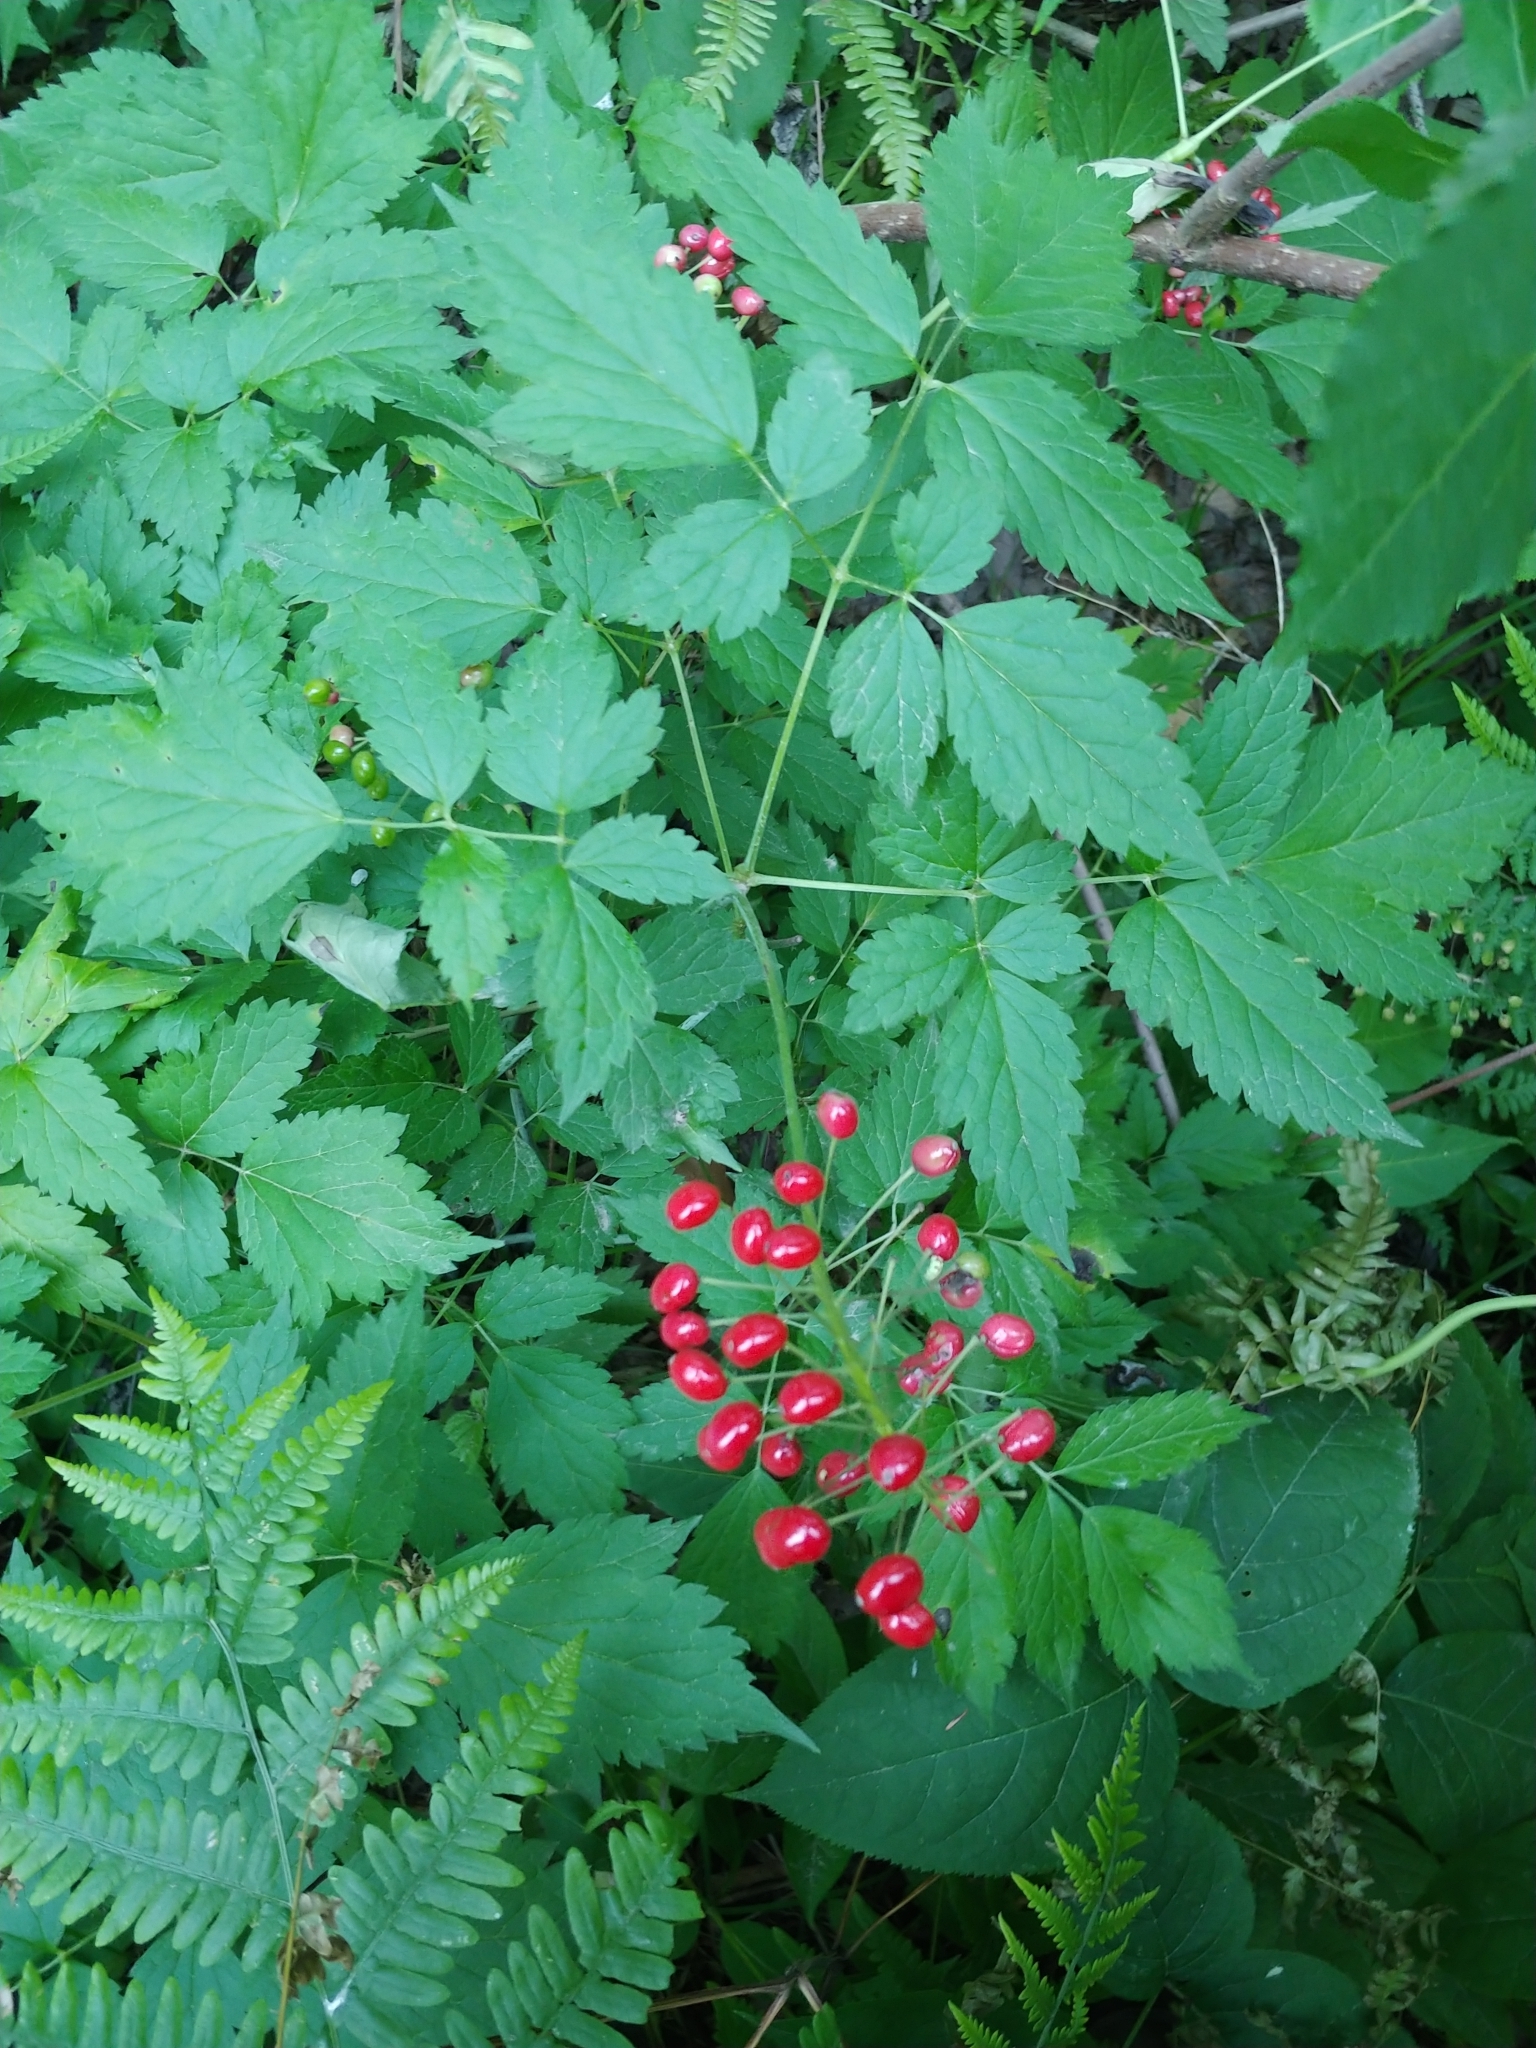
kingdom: Plantae
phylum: Tracheophyta
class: Magnoliopsida
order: Ranunculales
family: Ranunculaceae
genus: Actaea
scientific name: Actaea rubra
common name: Red baneberry
